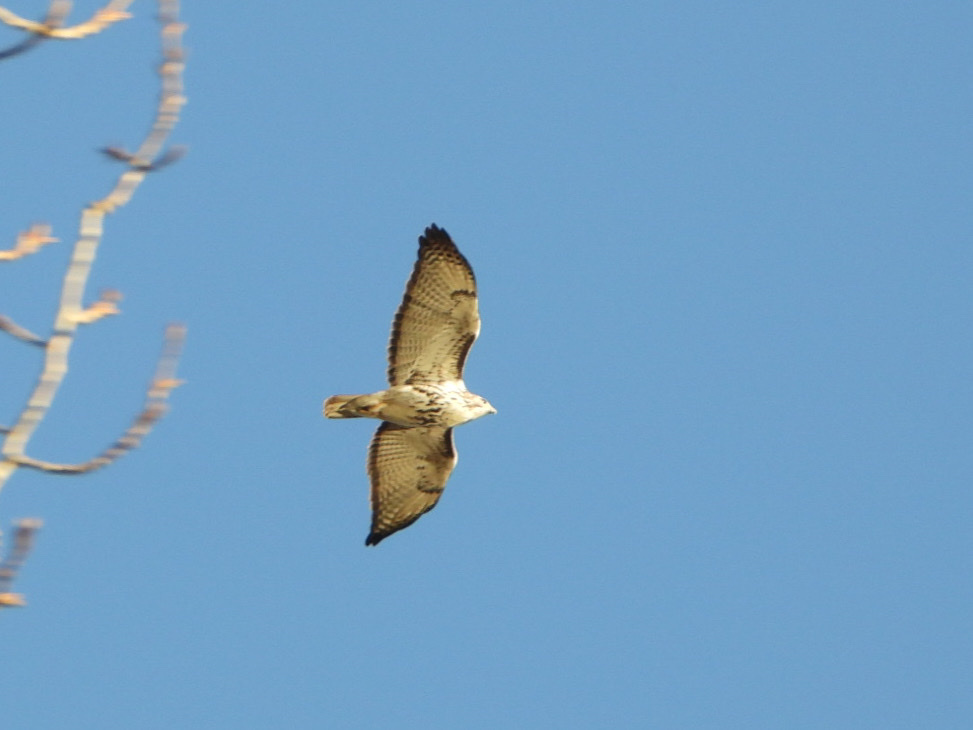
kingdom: Animalia
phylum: Chordata
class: Aves
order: Accipitriformes
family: Accipitridae
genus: Buteo
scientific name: Buteo jamaicensis
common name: Red-tailed hawk
